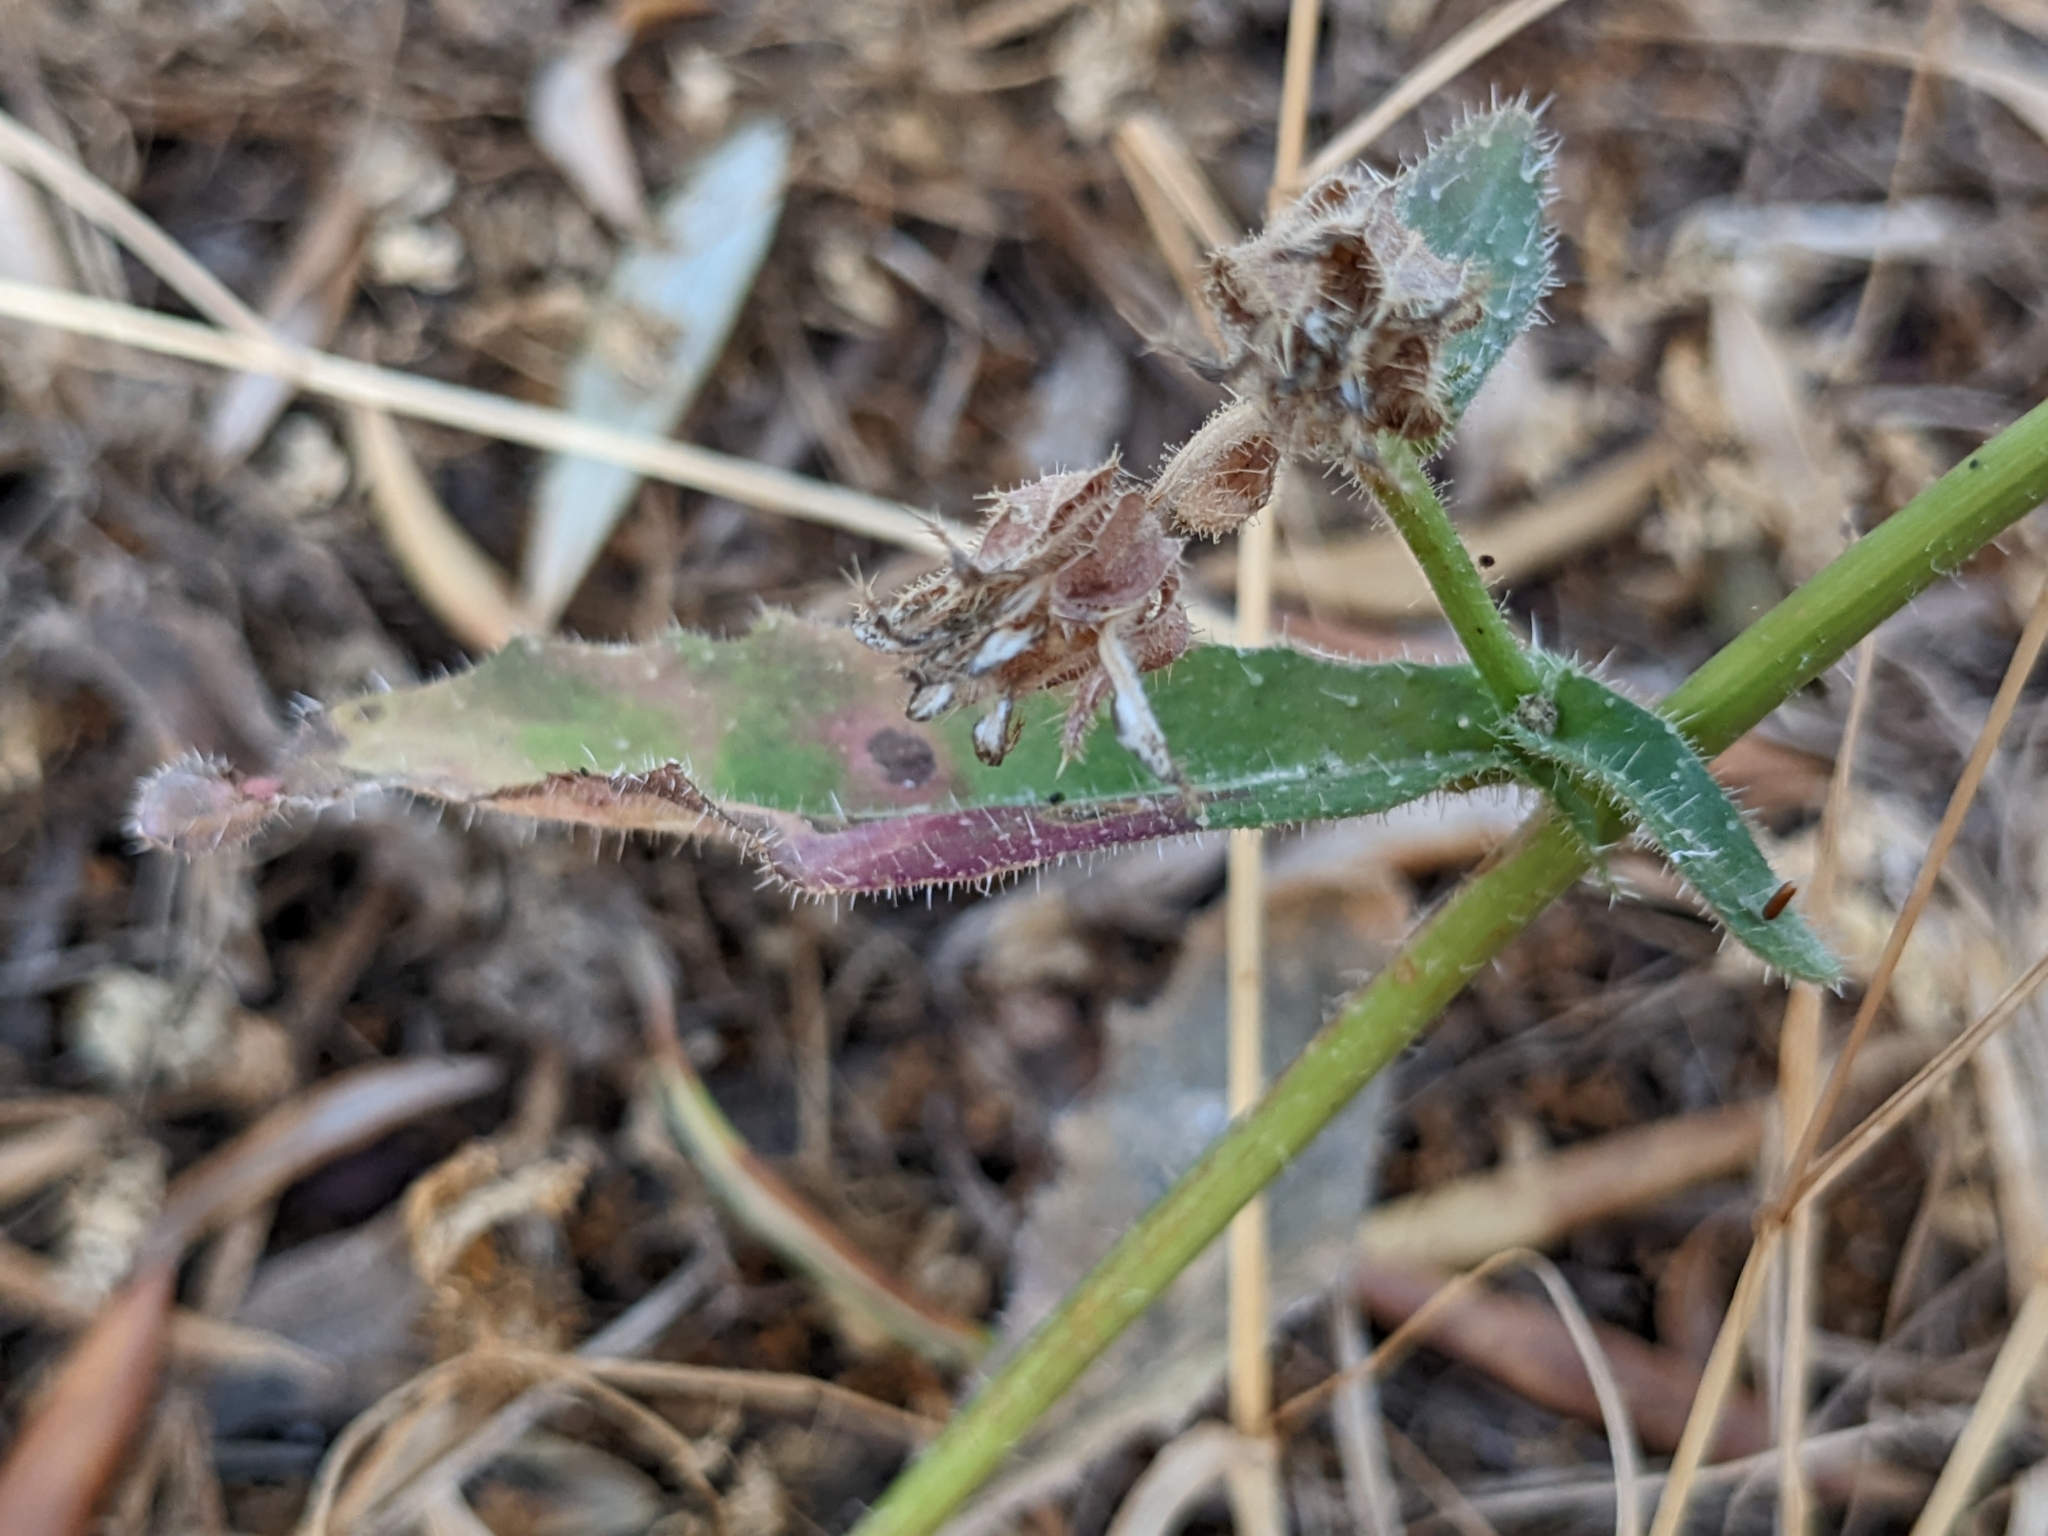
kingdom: Plantae
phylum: Tracheophyta
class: Magnoliopsida
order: Asterales
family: Asteraceae
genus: Helminthotheca
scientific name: Helminthotheca echioides
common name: Ox-tongue
